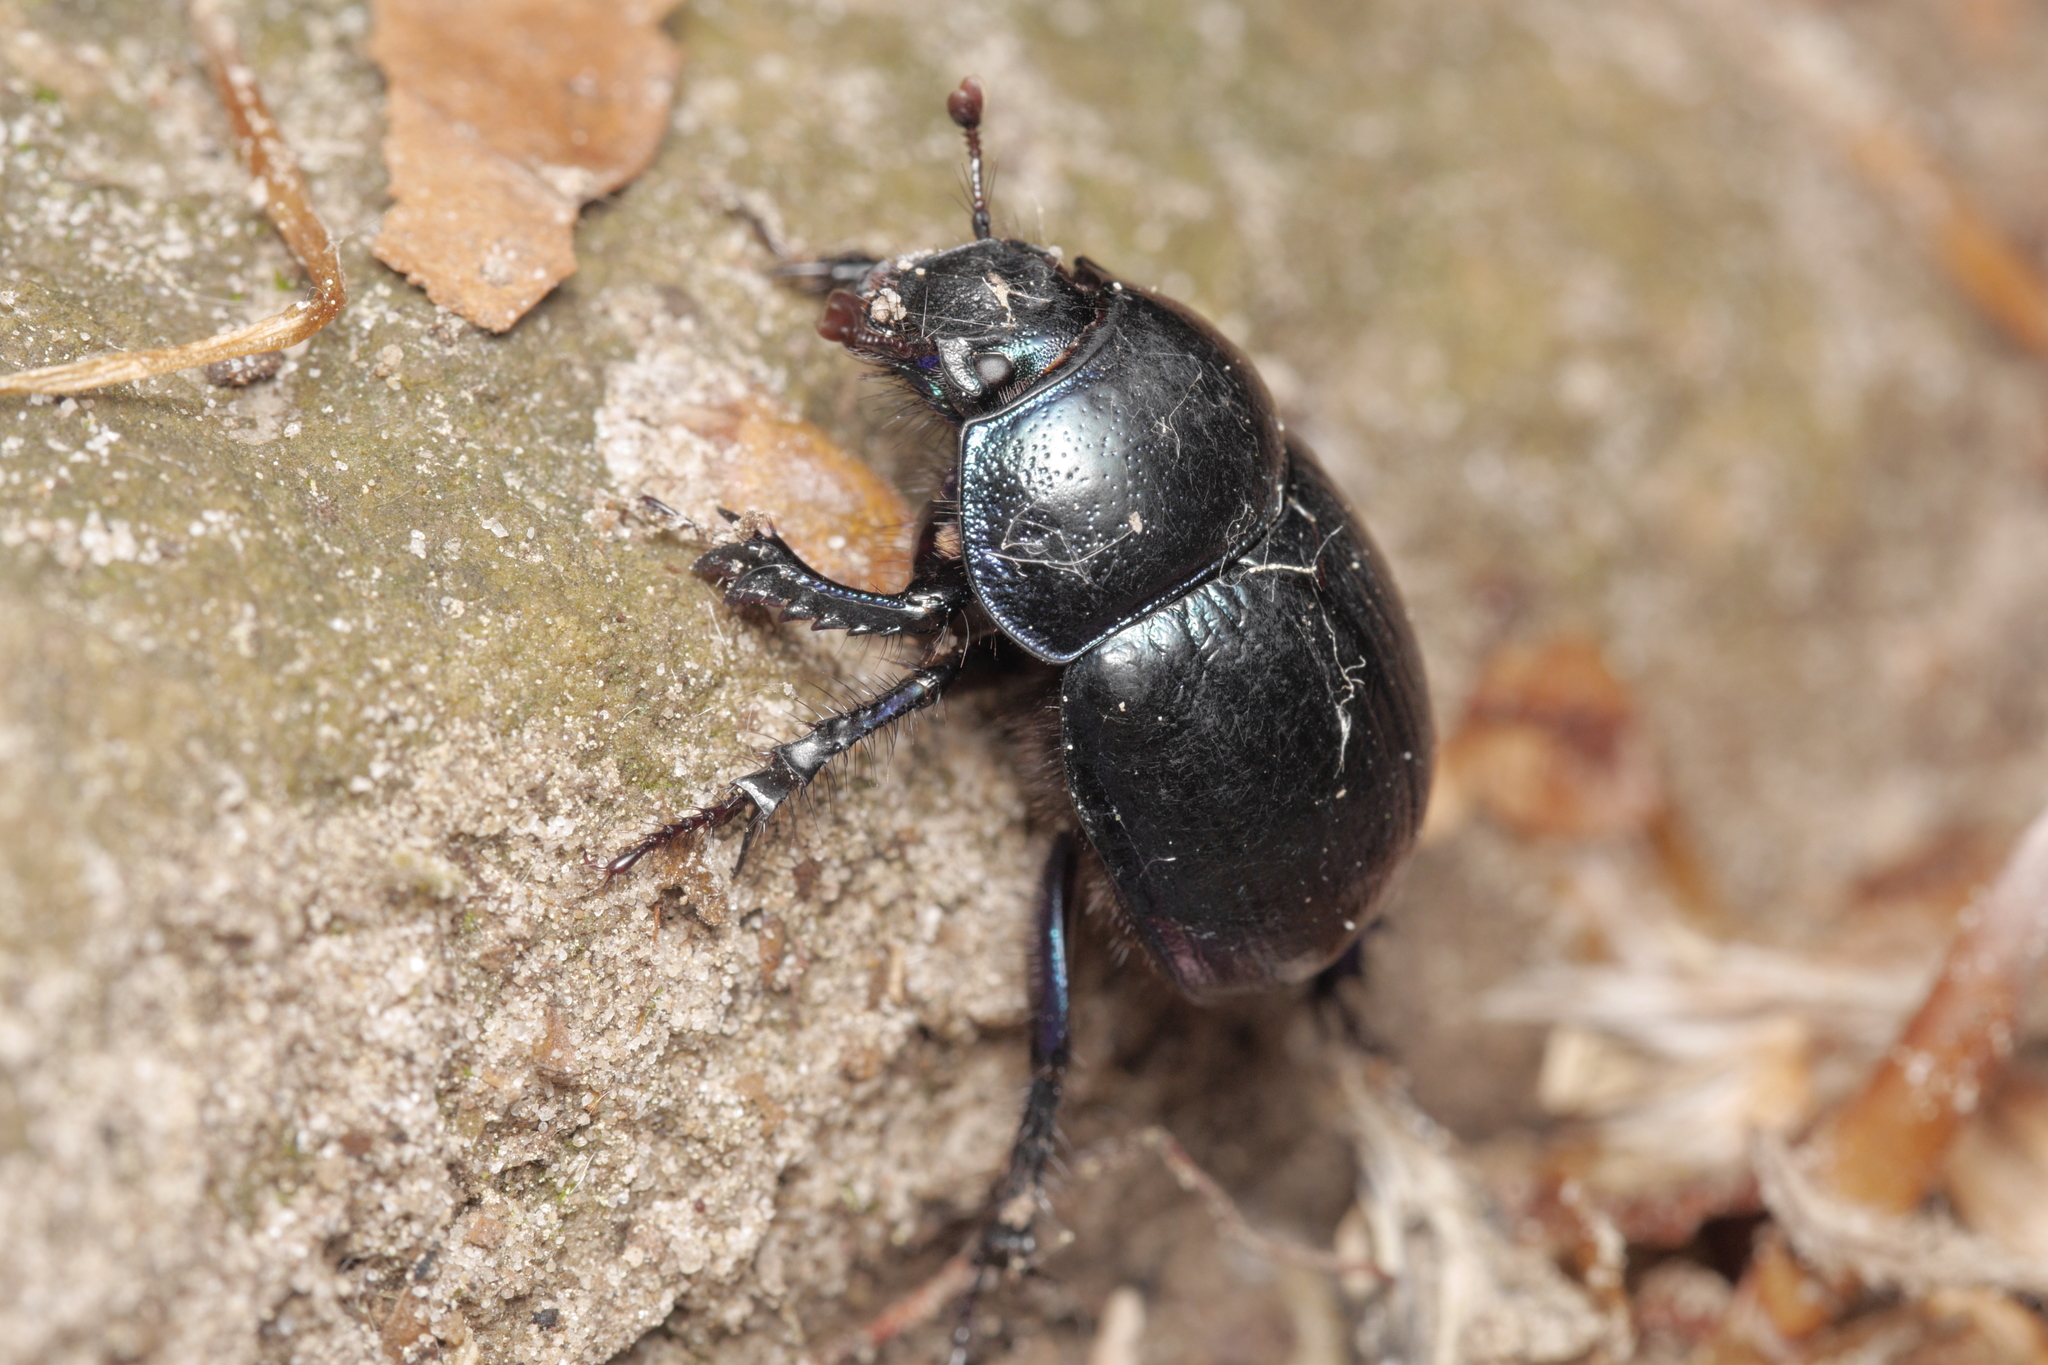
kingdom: Animalia
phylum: Arthropoda
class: Insecta
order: Coleoptera
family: Geotrupidae
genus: Anoplotrupes
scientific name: Anoplotrupes stercorosus
